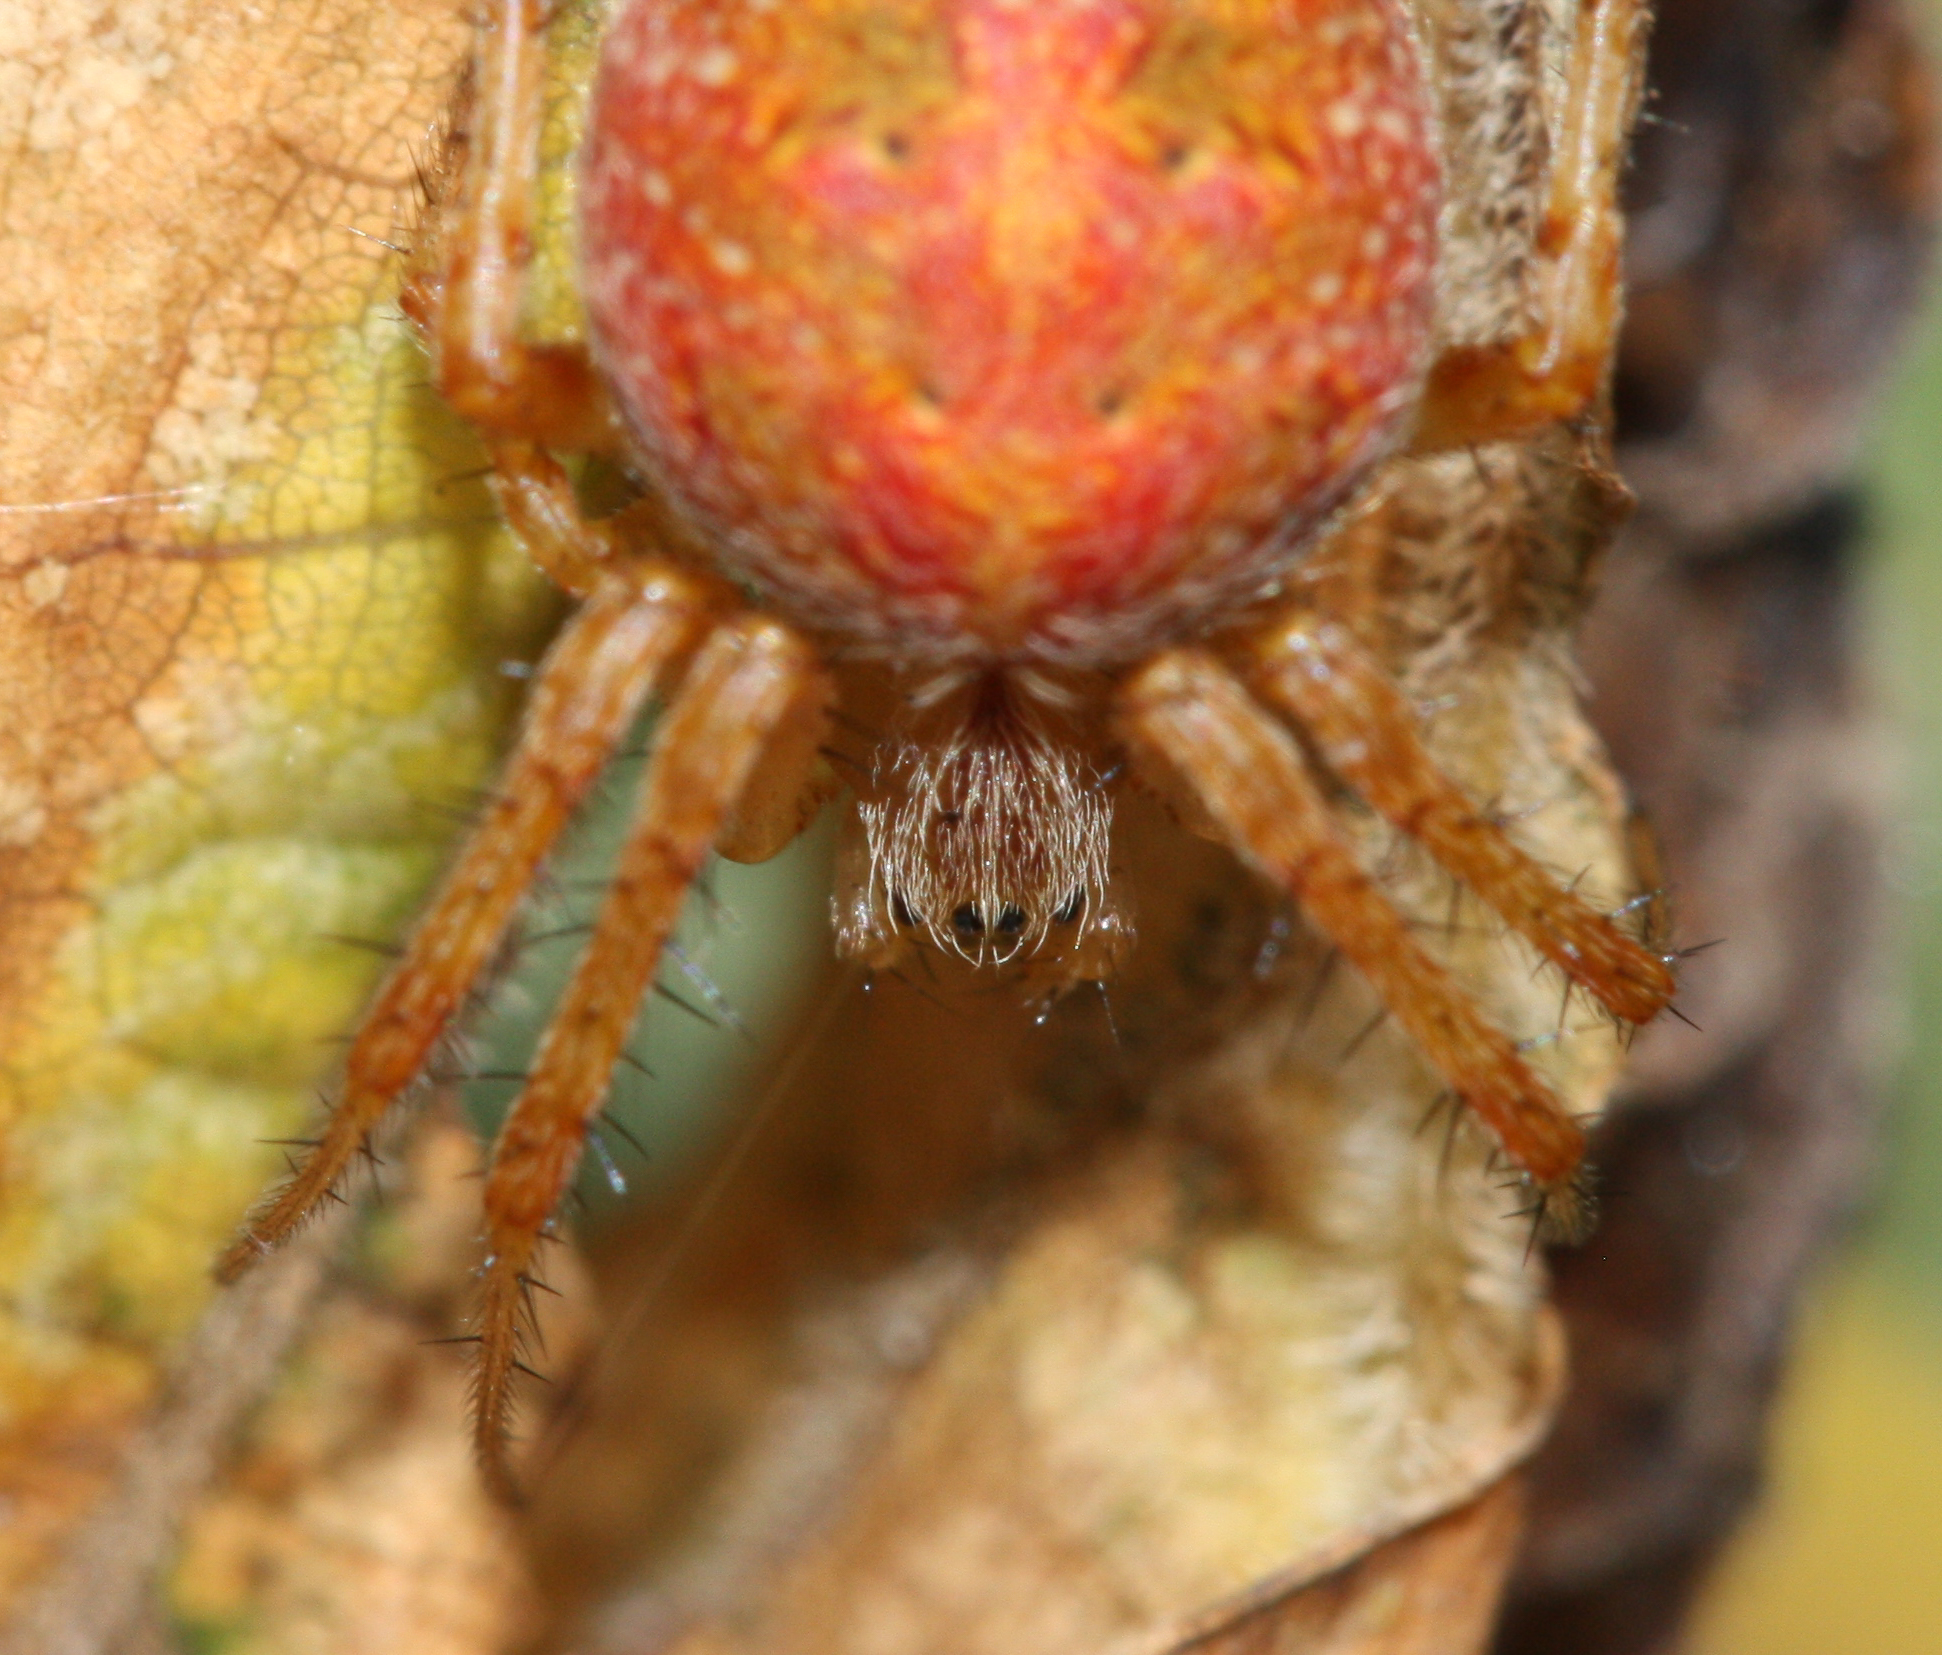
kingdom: Animalia
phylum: Arthropoda
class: Arachnida
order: Araneae
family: Araneidae
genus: Neoscona
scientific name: Neoscona arabesca
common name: Orb weavers
